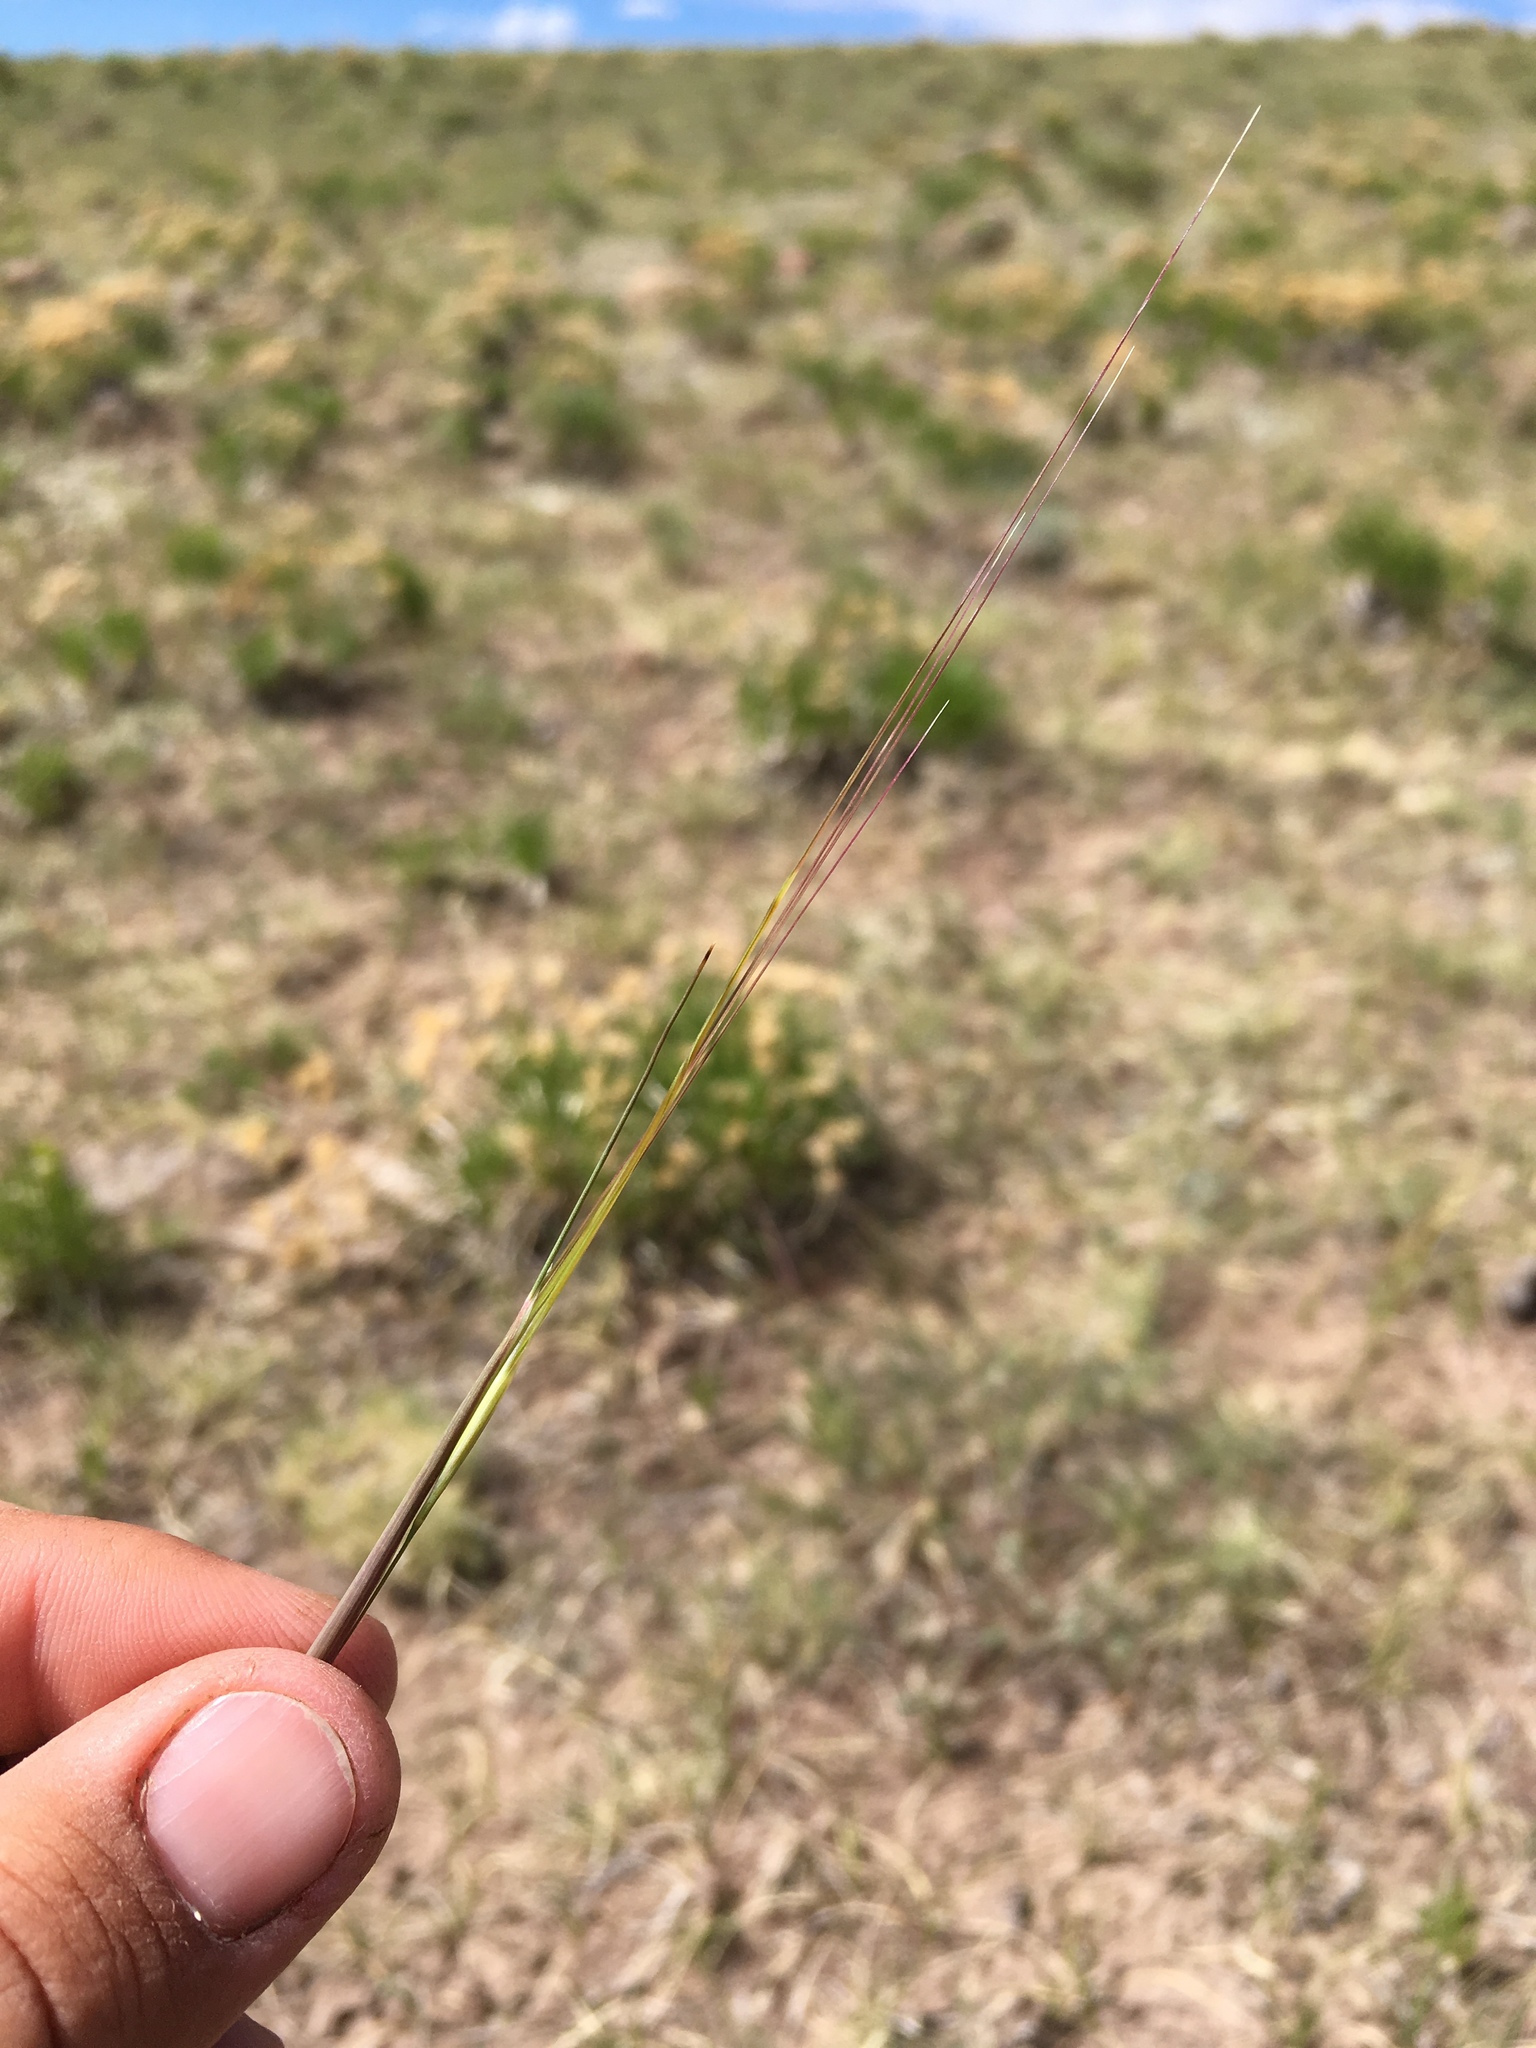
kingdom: Plantae
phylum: Tracheophyta
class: Liliopsida
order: Poales
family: Poaceae
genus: Hesperostipa
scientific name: Hesperostipa comata
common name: Needle-and-thread grass
